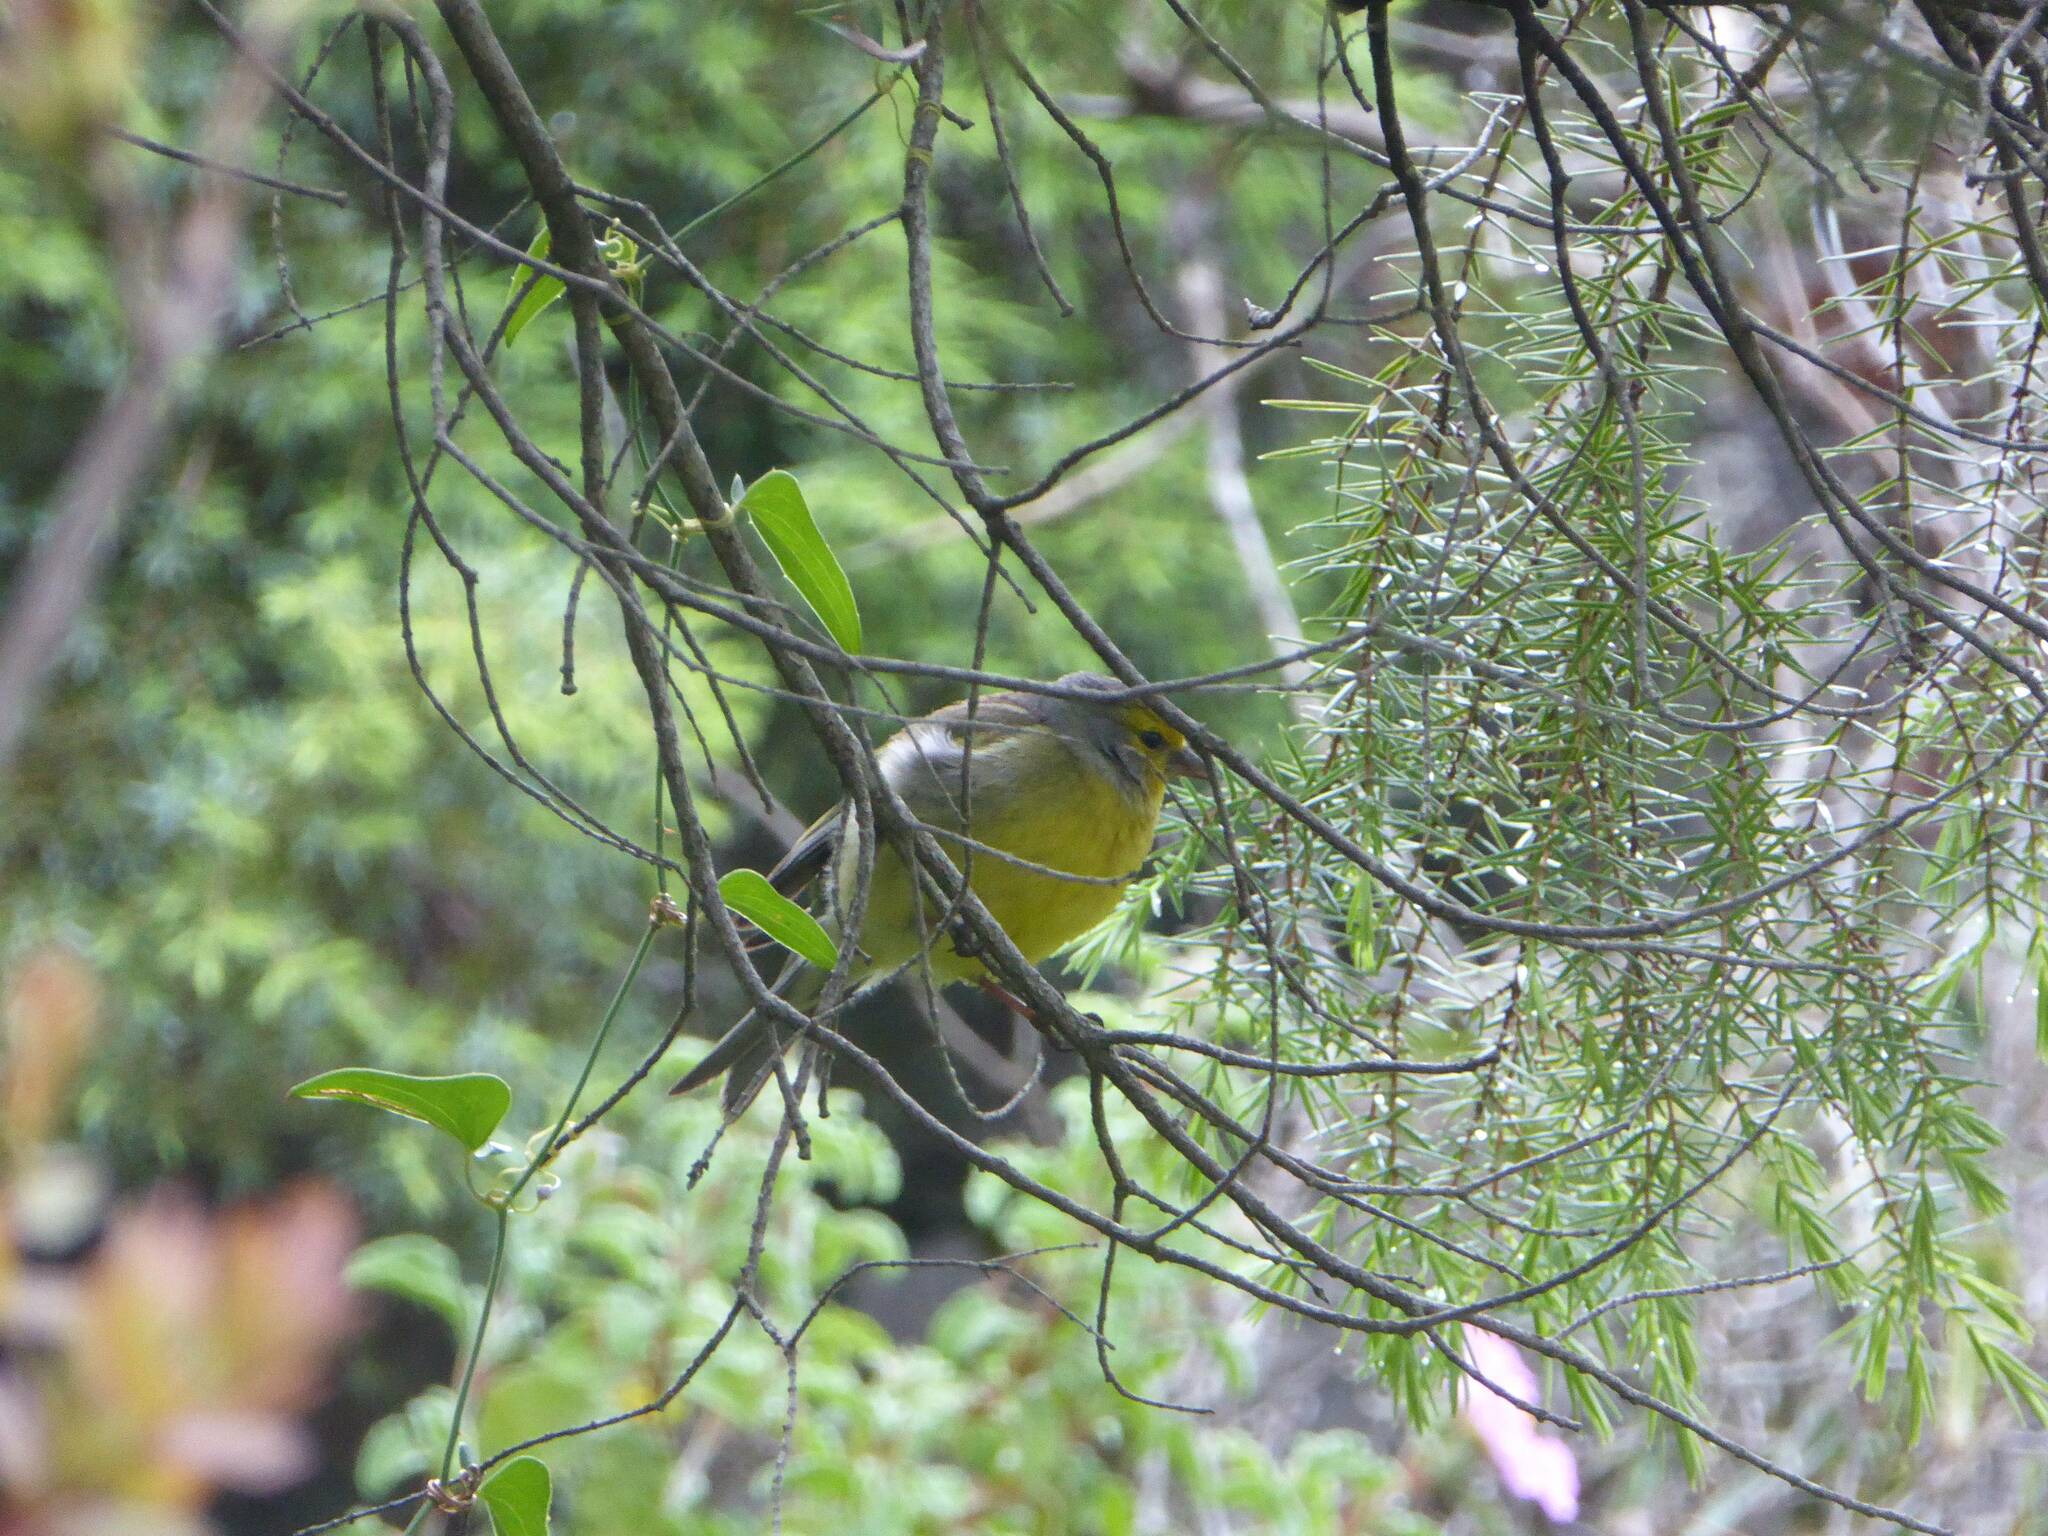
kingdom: Animalia
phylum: Chordata
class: Aves
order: Passeriformes
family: Fringillidae
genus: Carduelis
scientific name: Carduelis corsicana
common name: Corsican finch
